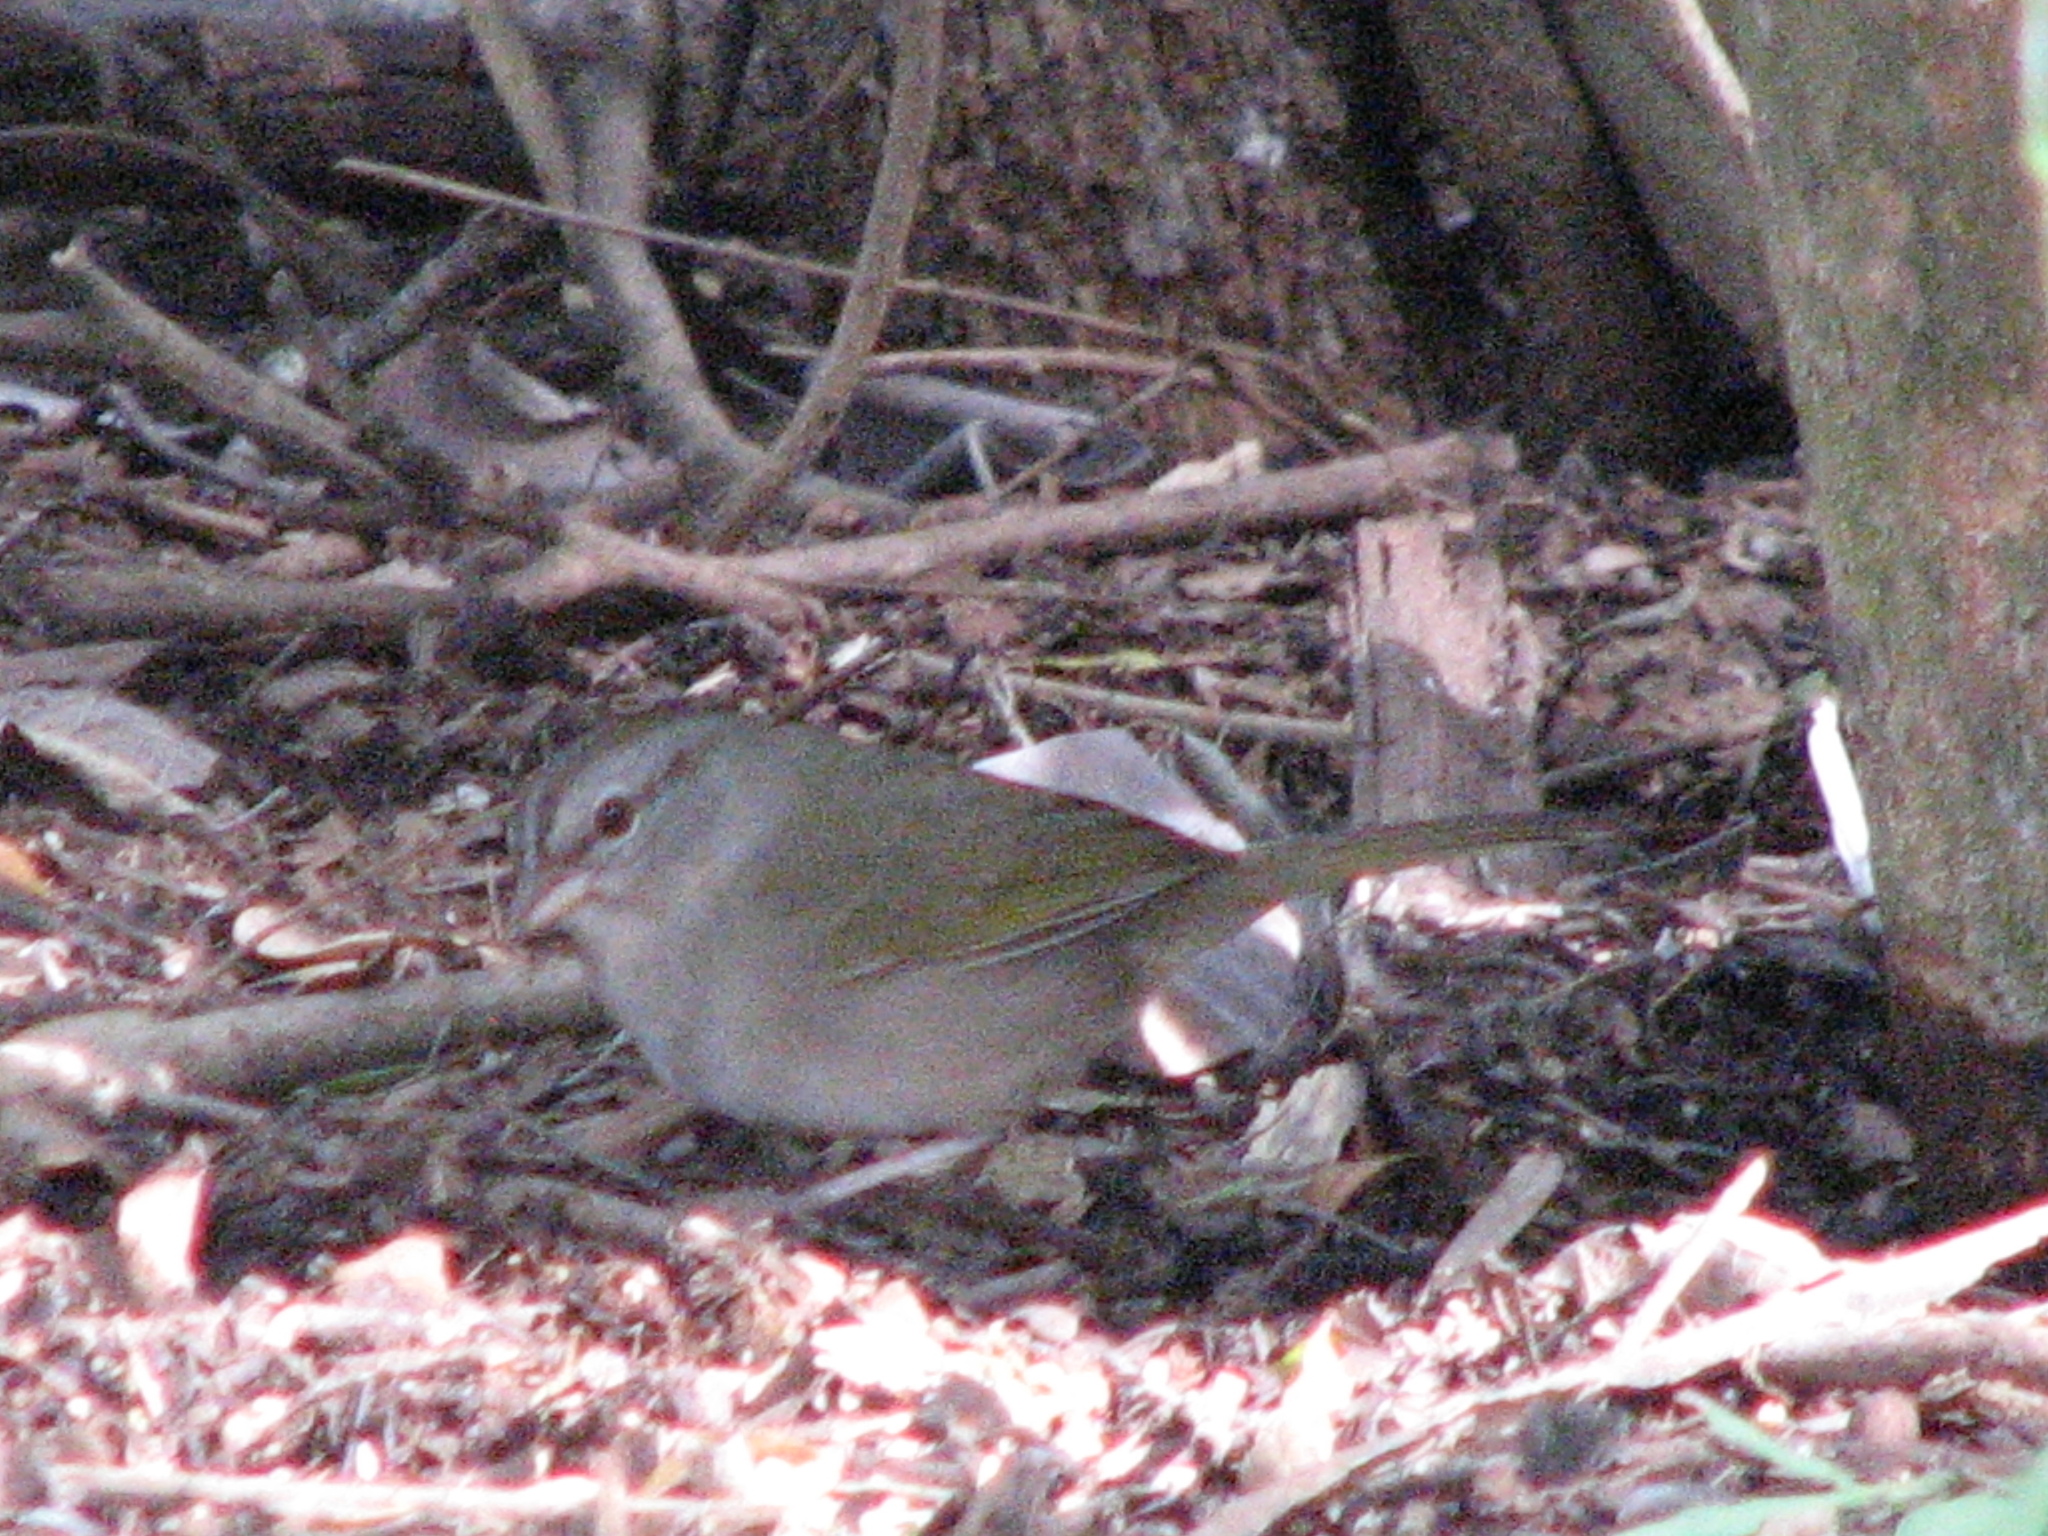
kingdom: Animalia
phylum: Chordata
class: Aves
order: Passeriformes
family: Passerellidae
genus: Arremonops
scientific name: Arremonops rufivirgatus
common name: Olive sparrow
